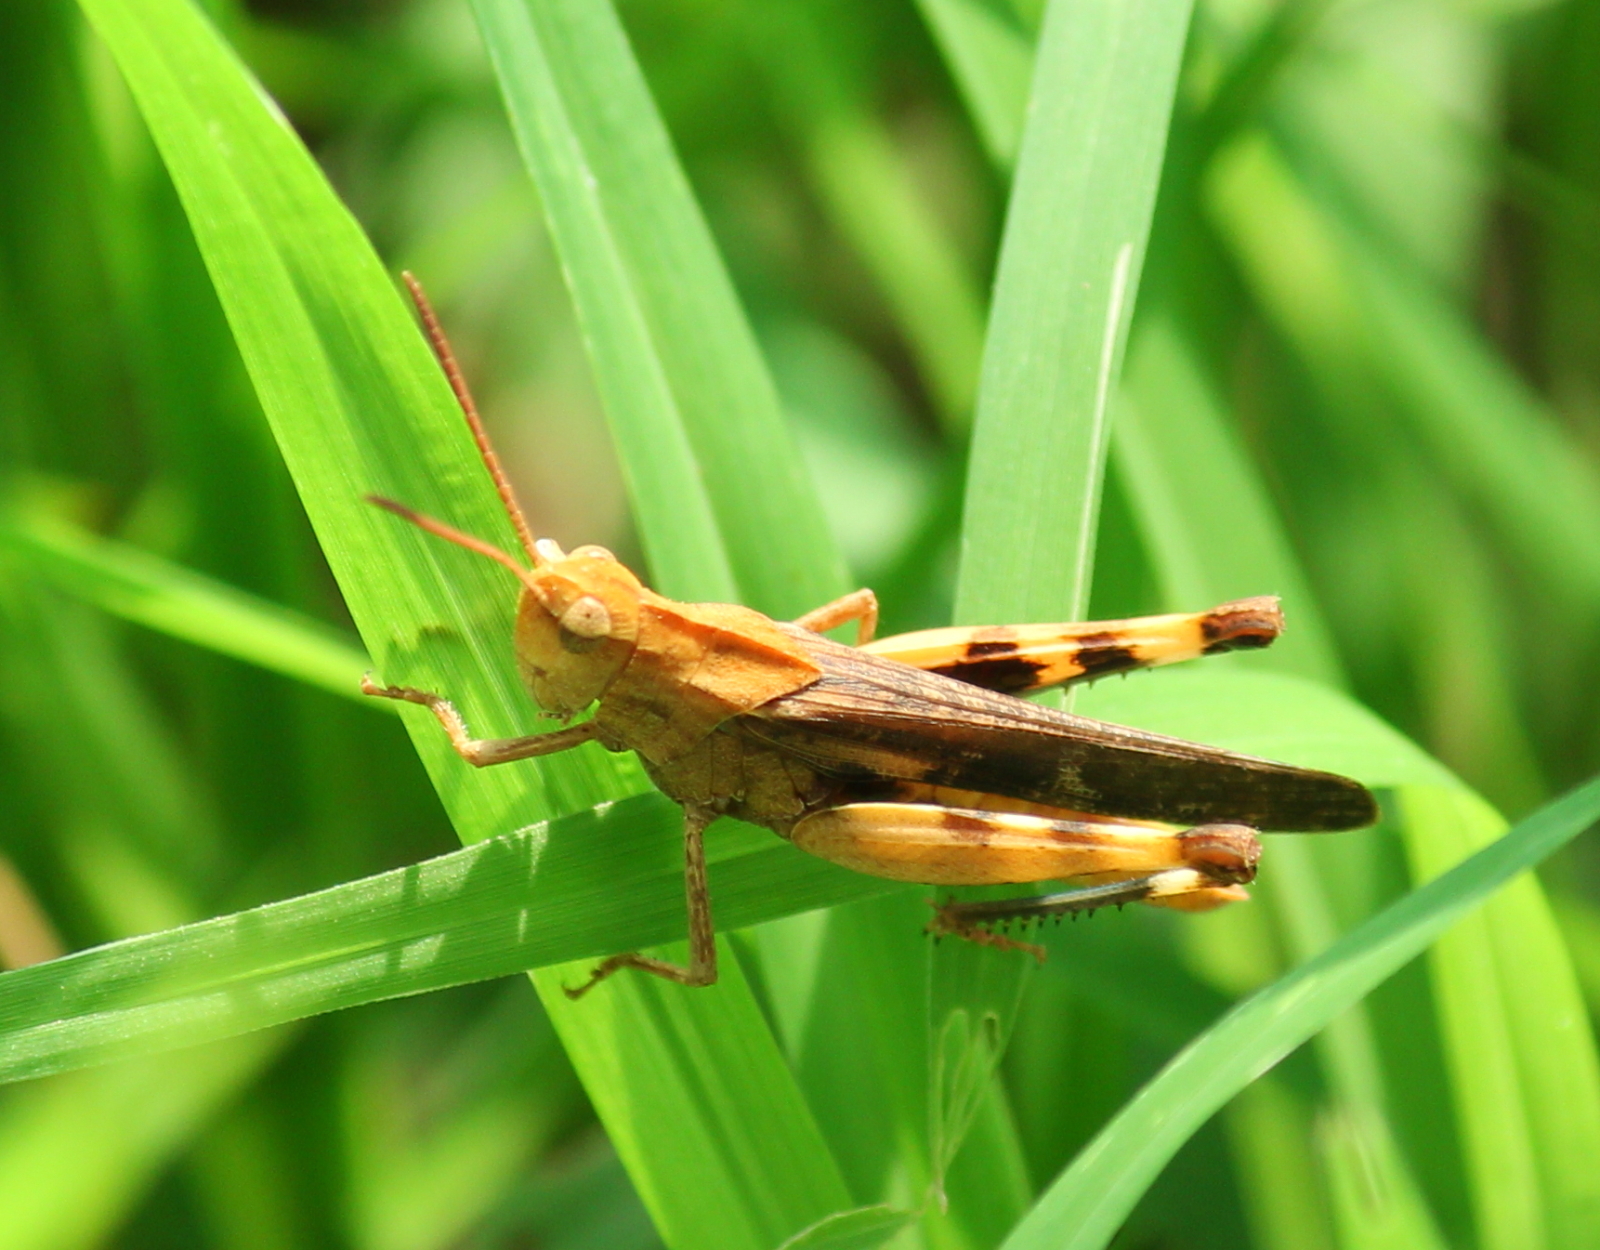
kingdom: Animalia
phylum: Arthropoda
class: Insecta
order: Orthoptera
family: Acrididae
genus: Chortophaga
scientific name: Chortophaga viridifasciata
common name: Green-striped grasshopper
